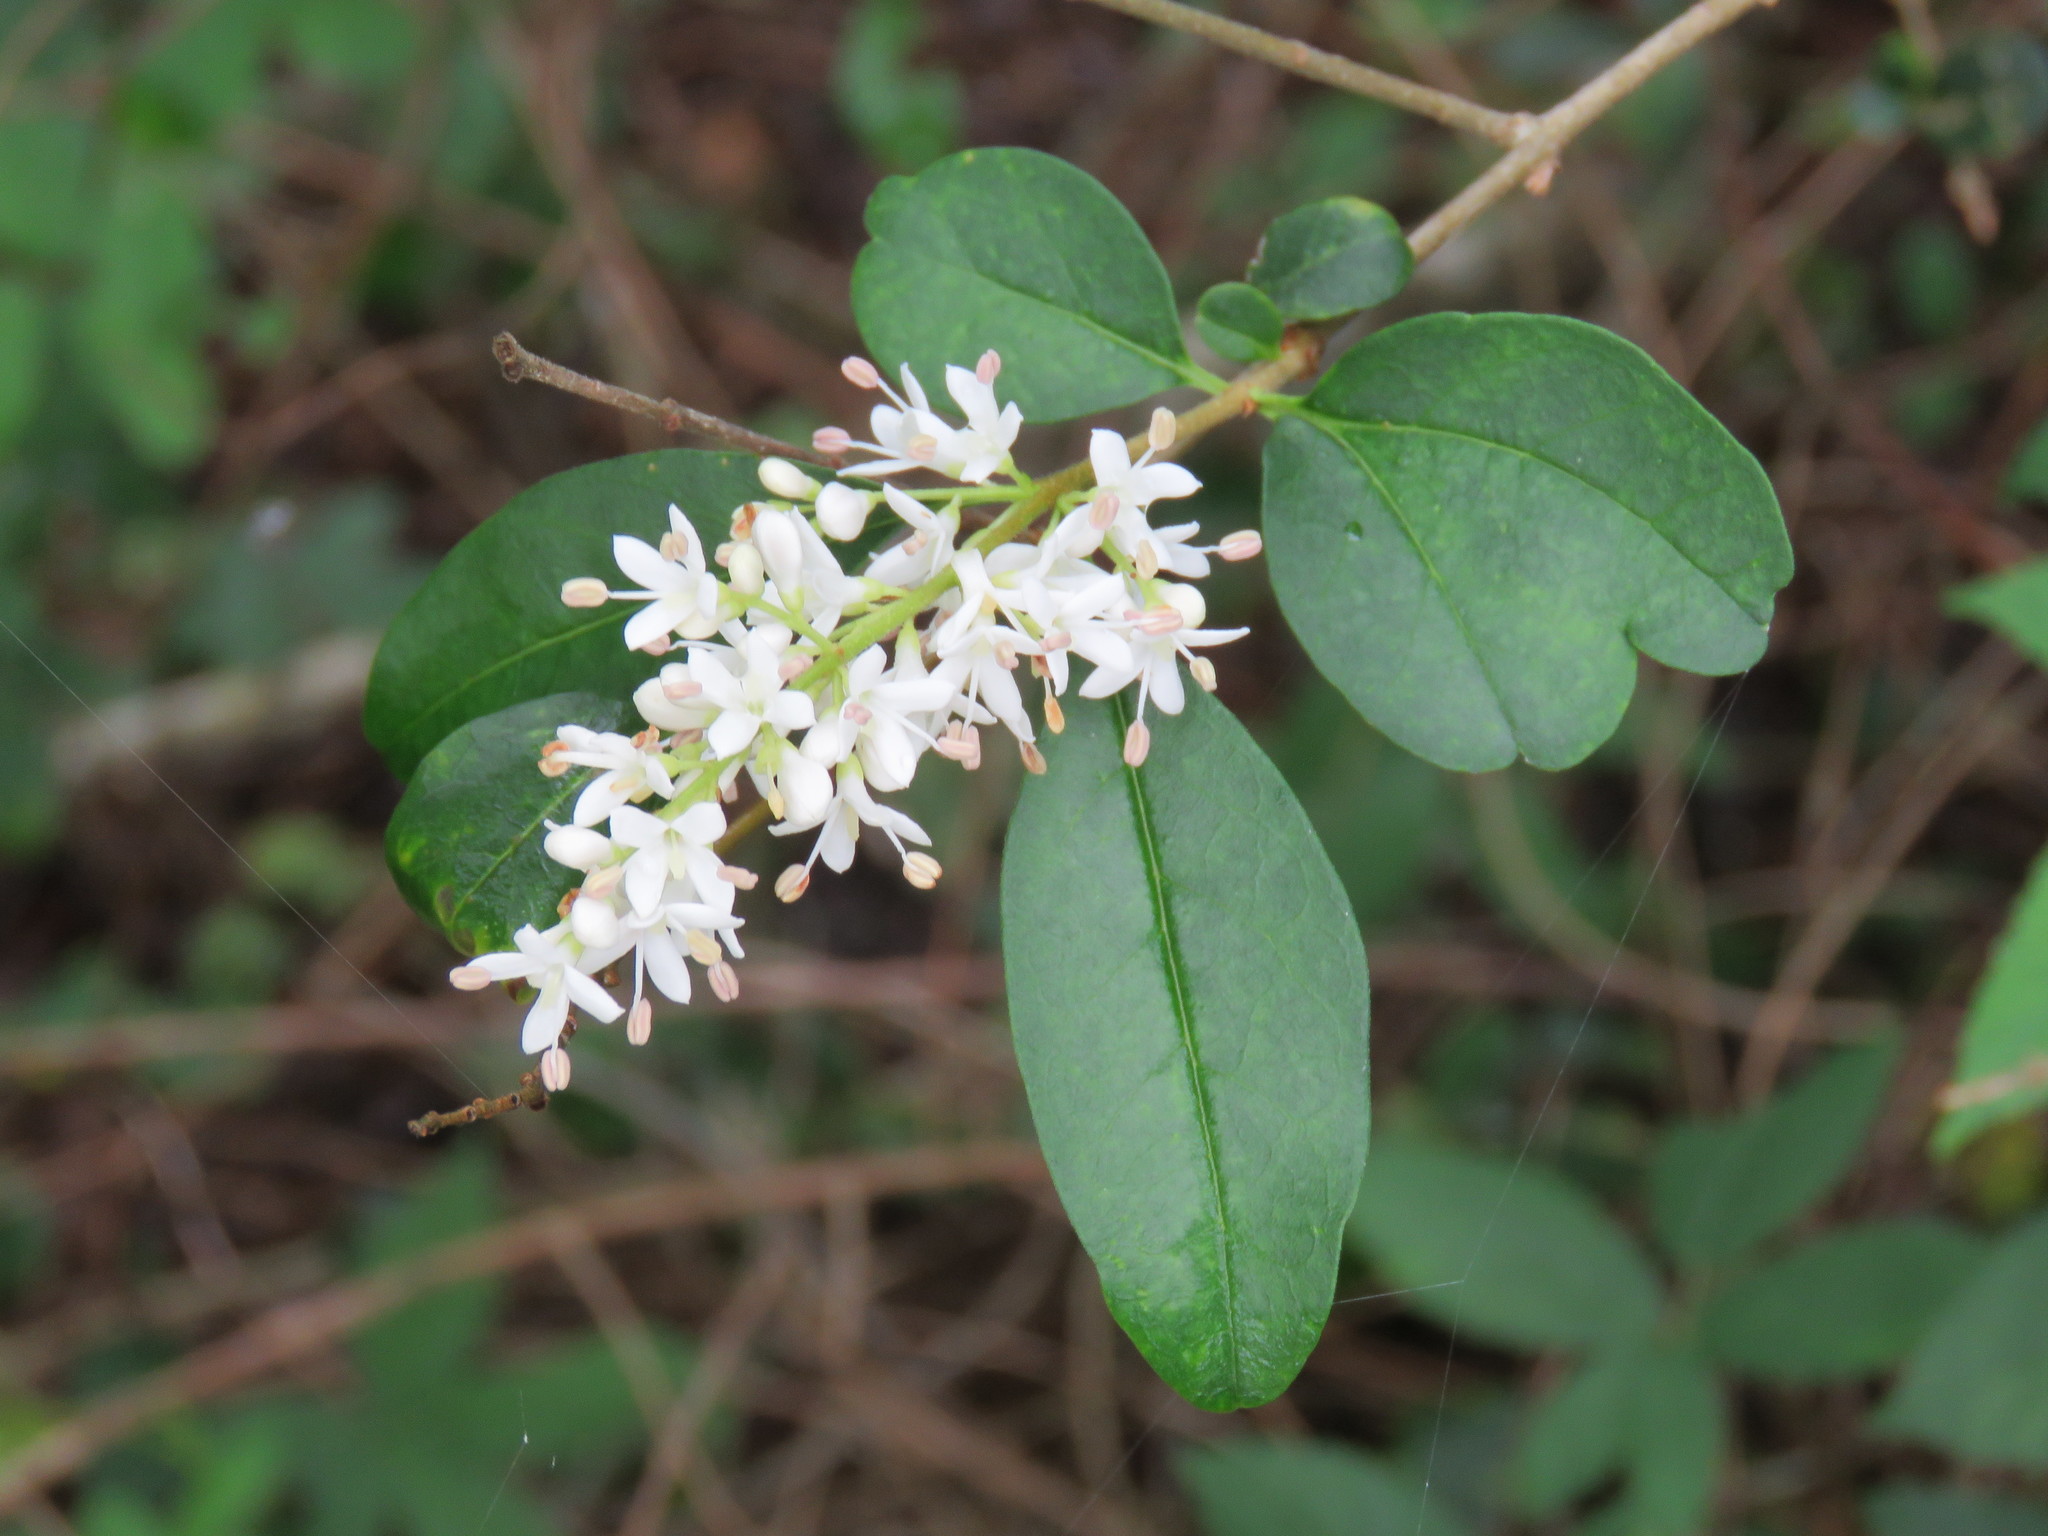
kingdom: Plantae
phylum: Tracheophyta
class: Magnoliopsida
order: Lamiales
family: Oleaceae
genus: Ligustrum
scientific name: Ligustrum sinense
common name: Chinese privet
